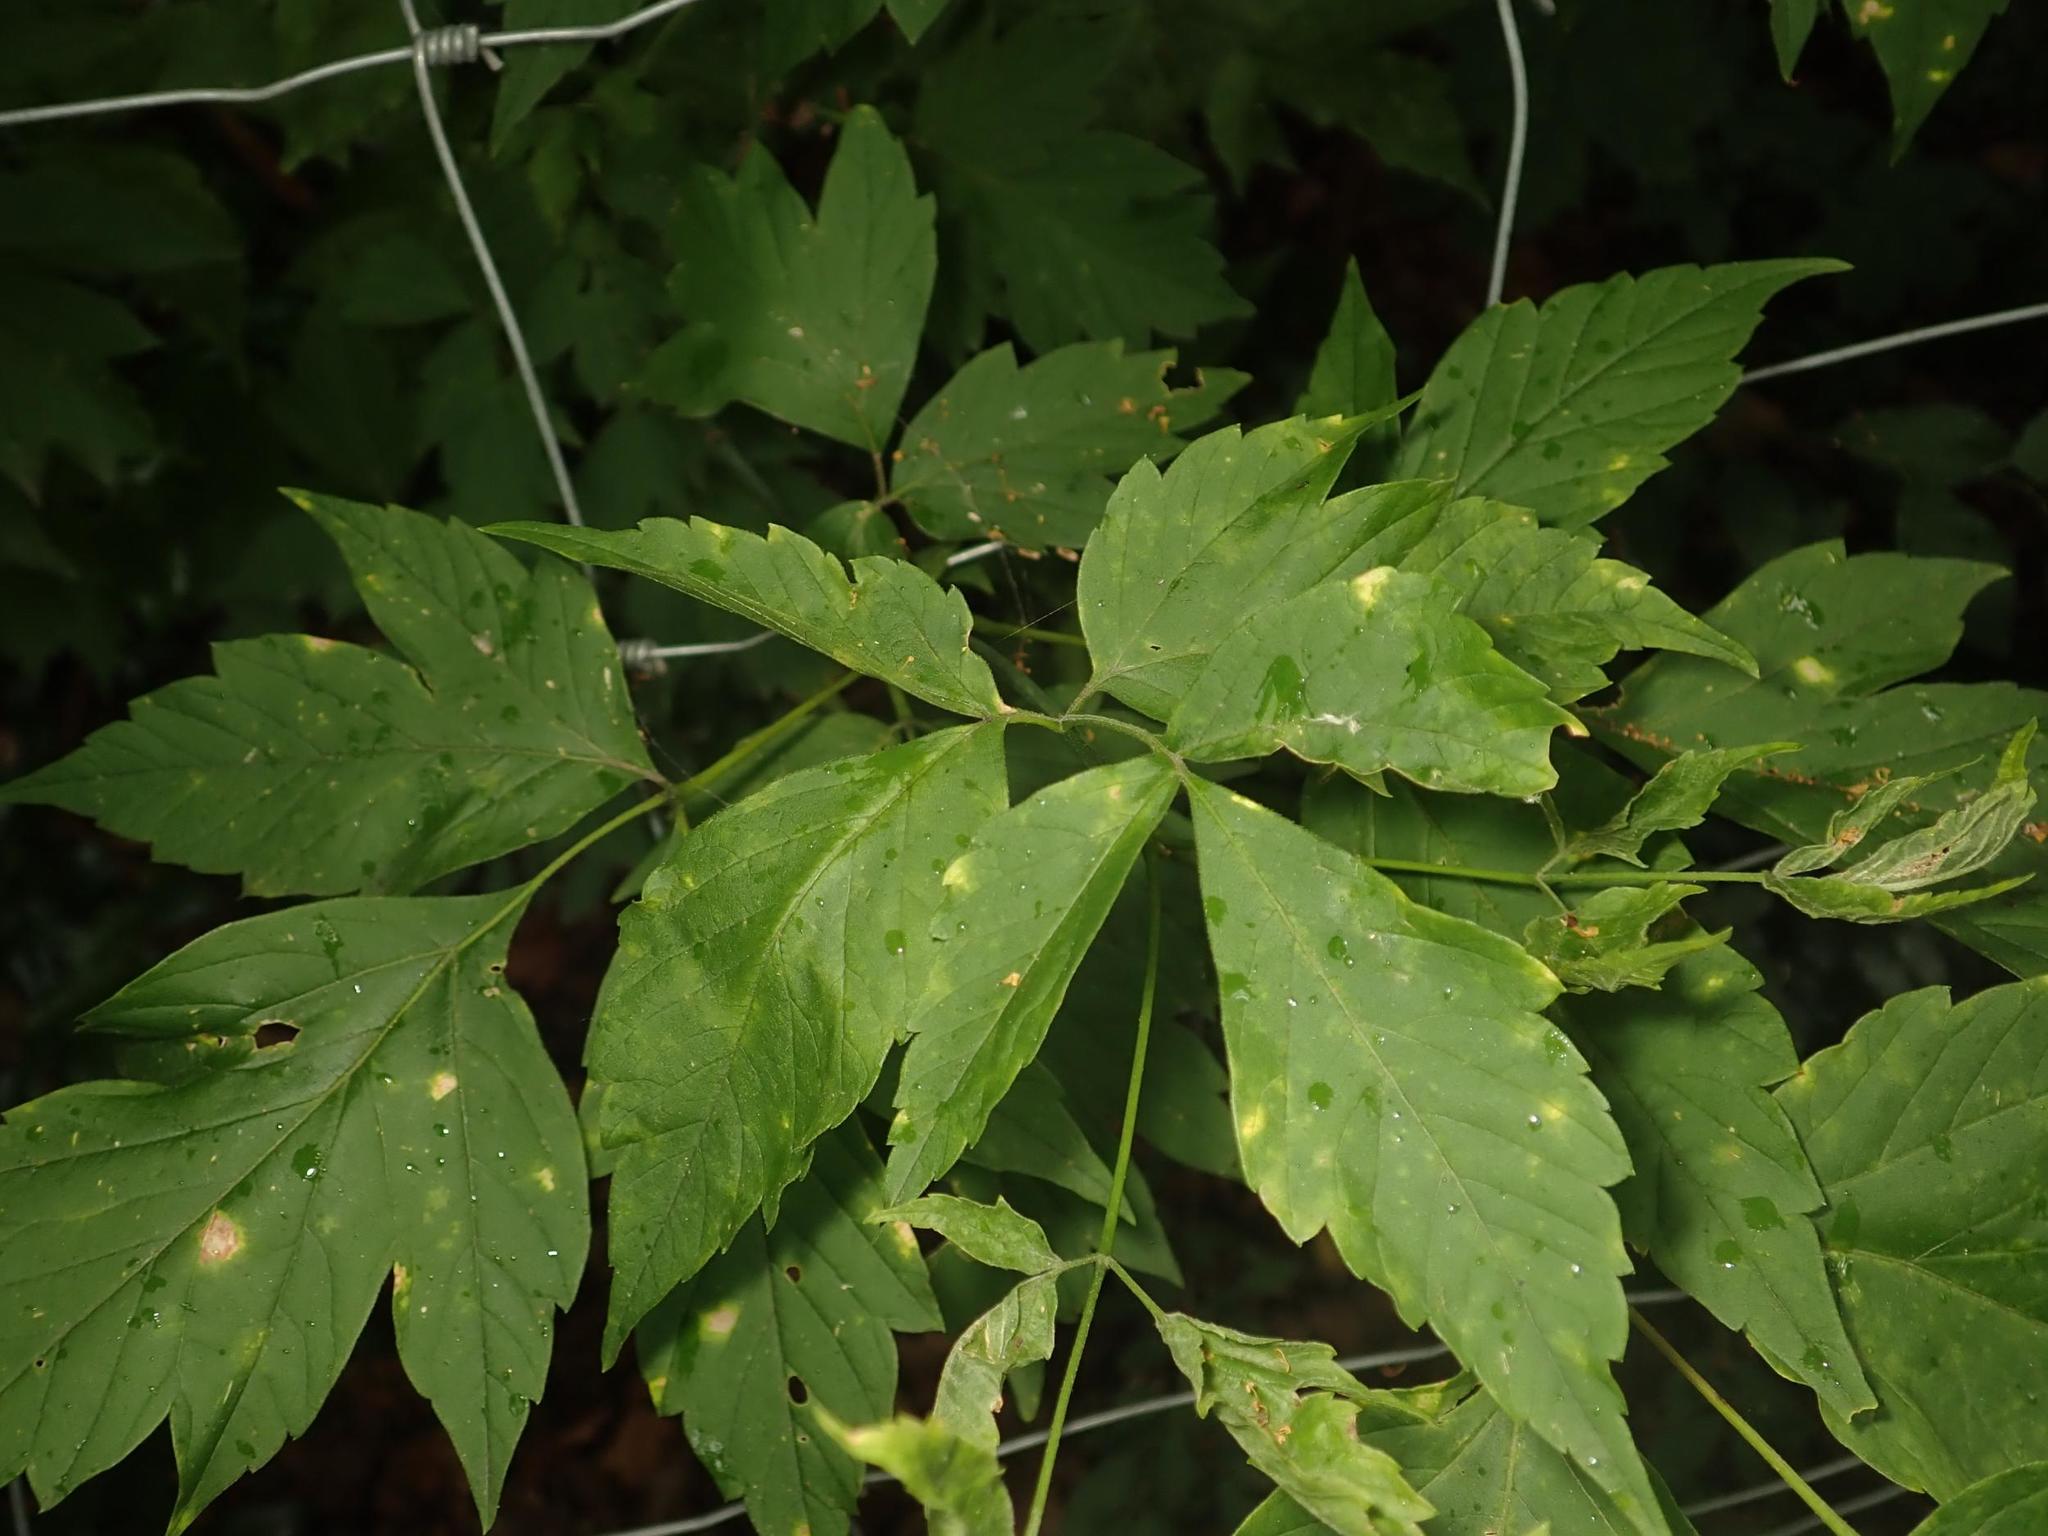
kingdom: Plantae
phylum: Tracheophyta
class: Magnoliopsida
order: Sapindales
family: Sapindaceae
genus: Acer
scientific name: Acer negundo
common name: Ashleaf maple
